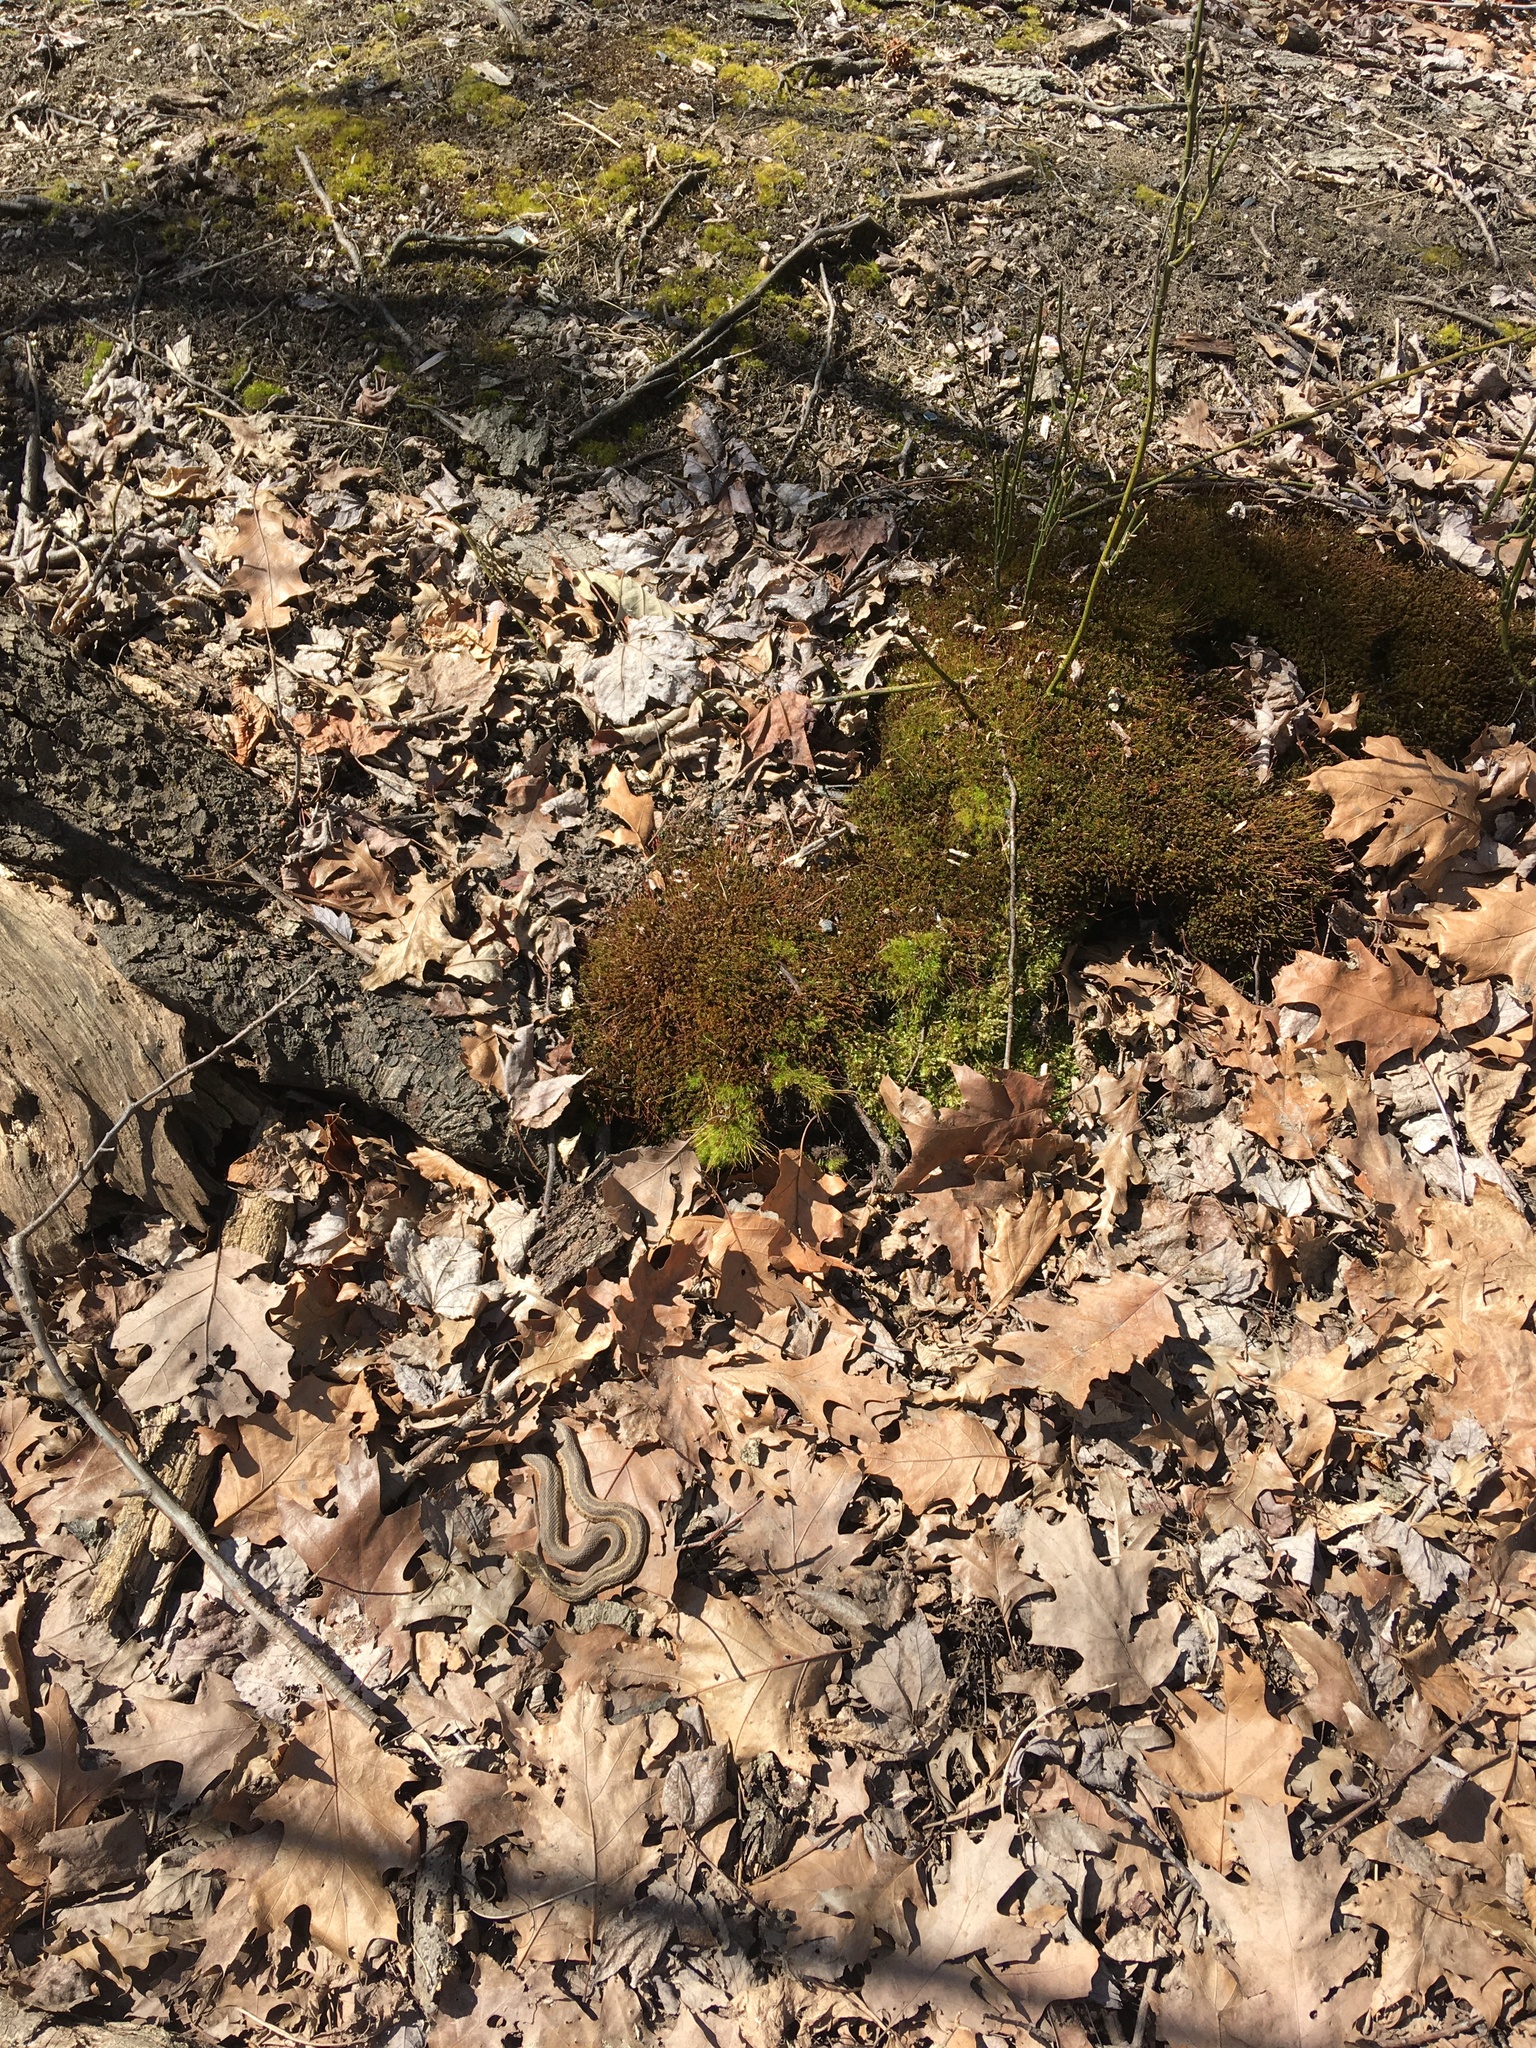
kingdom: Animalia
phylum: Chordata
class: Squamata
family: Colubridae
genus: Thamnophis
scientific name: Thamnophis sirtalis
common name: Common garter snake
